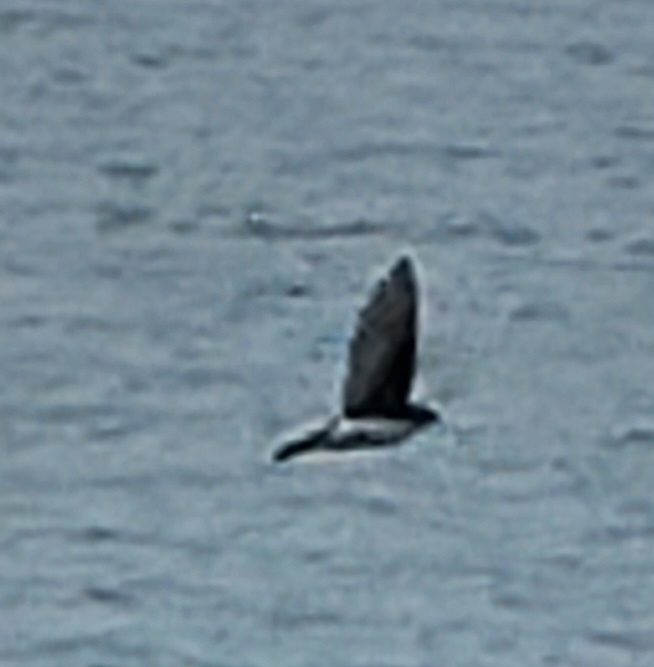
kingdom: Animalia
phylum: Chordata
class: Aves
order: Passeriformes
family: Hirundinidae
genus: Tachycineta
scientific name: Tachycineta bicolor
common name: Tree swallow
